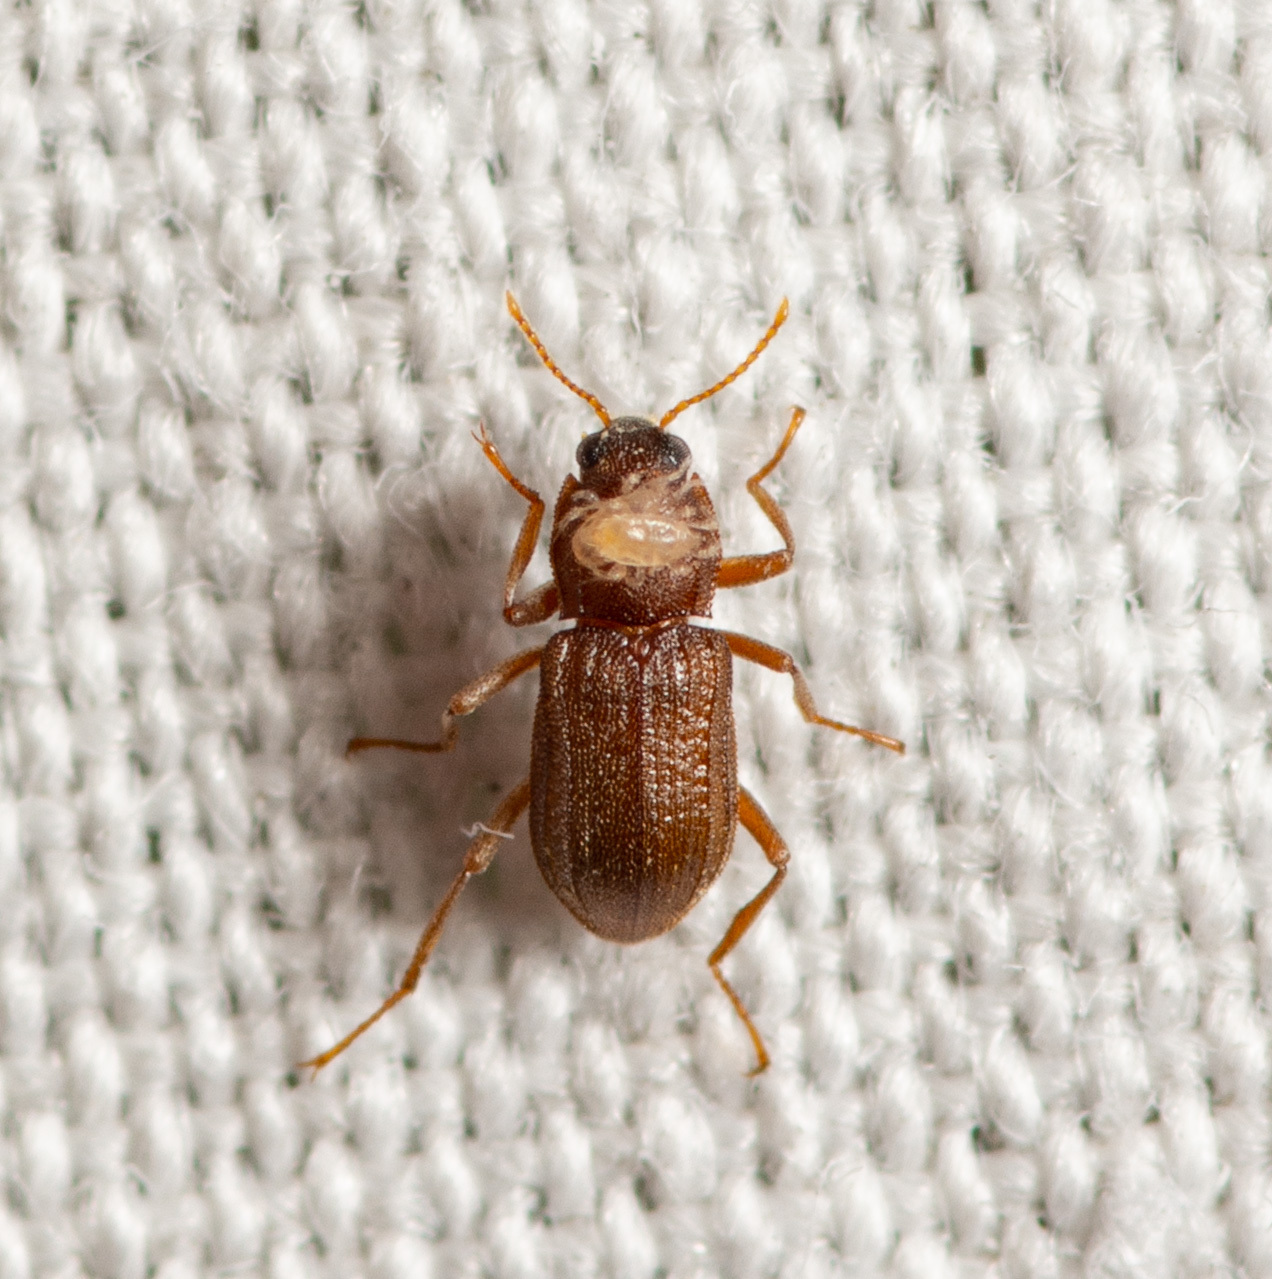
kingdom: Animalia
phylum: Arthropoda
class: Insecta
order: Coleoptera
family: Elmidae
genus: Hexacylloepus
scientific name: Hexacylloepus ferrugineus
